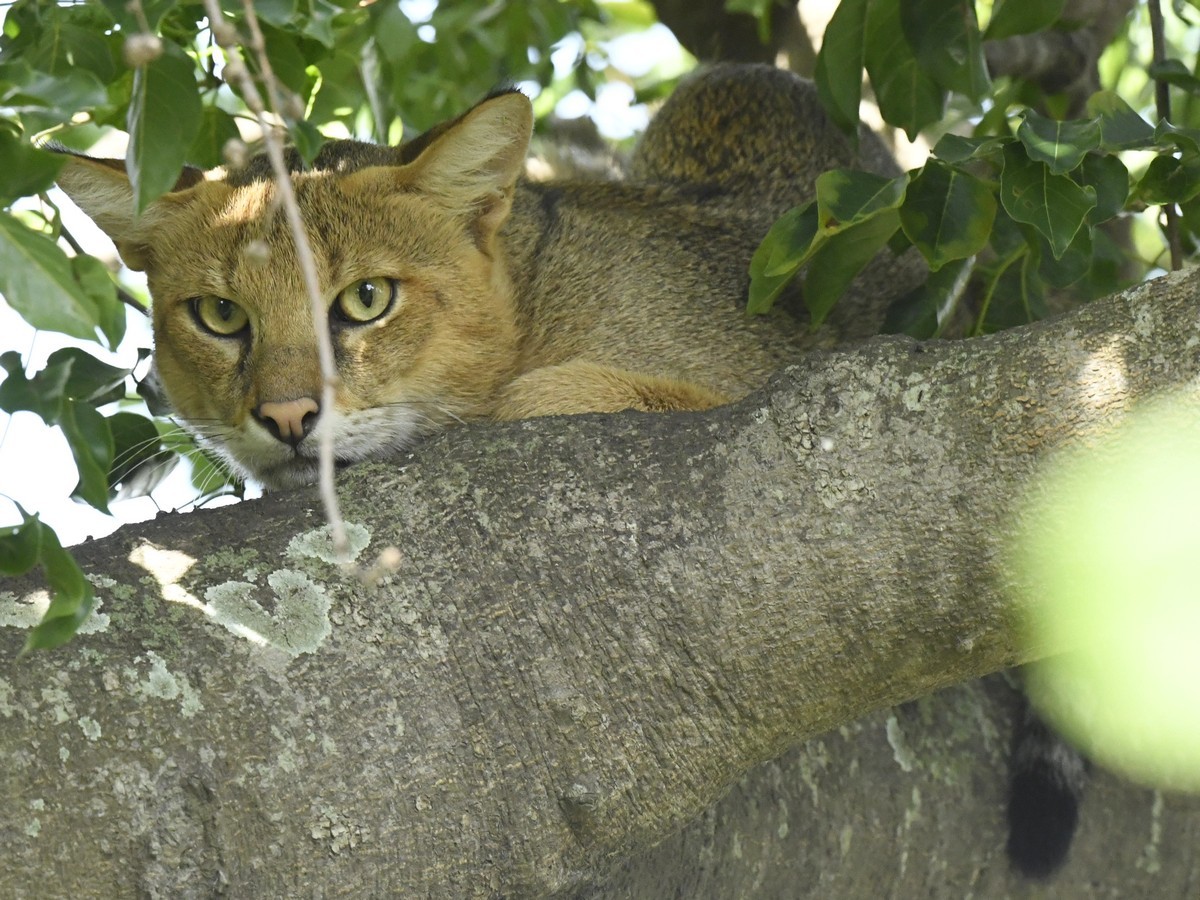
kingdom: Animalia
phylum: Chordata
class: Mammalia
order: Carnivora
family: Felidae
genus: Felis
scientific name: Felis chaus
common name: Jungle cat
